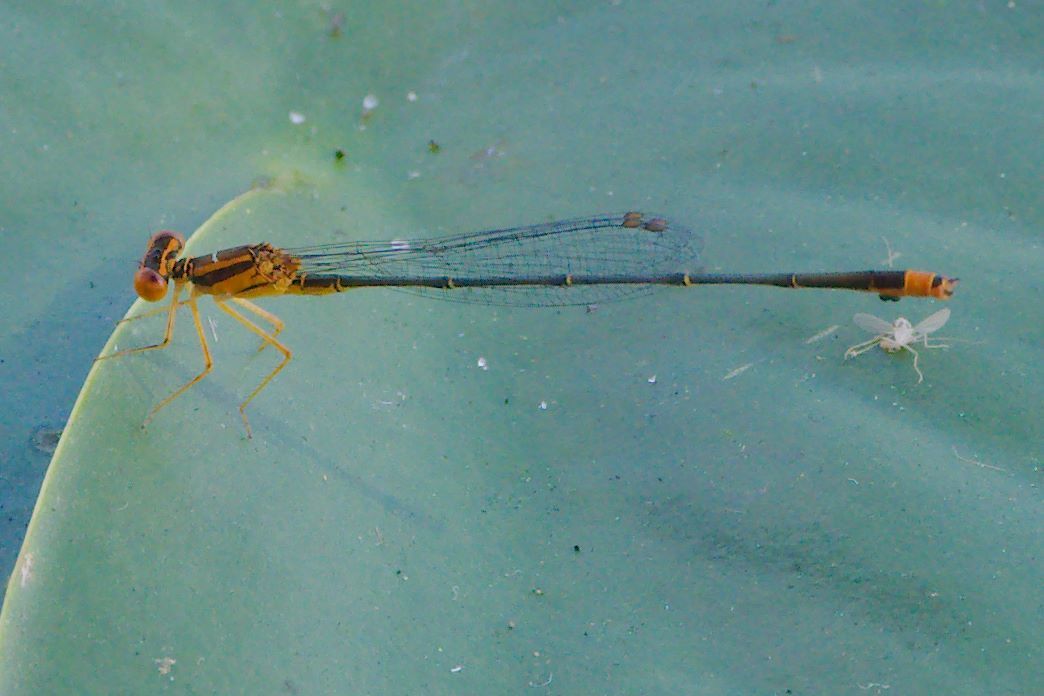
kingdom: Animalia
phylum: Arthropoda
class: Insecta
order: Odonata
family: Coenagrionidae
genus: Enallagma
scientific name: Enallagma pollutum
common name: Florida bluet
